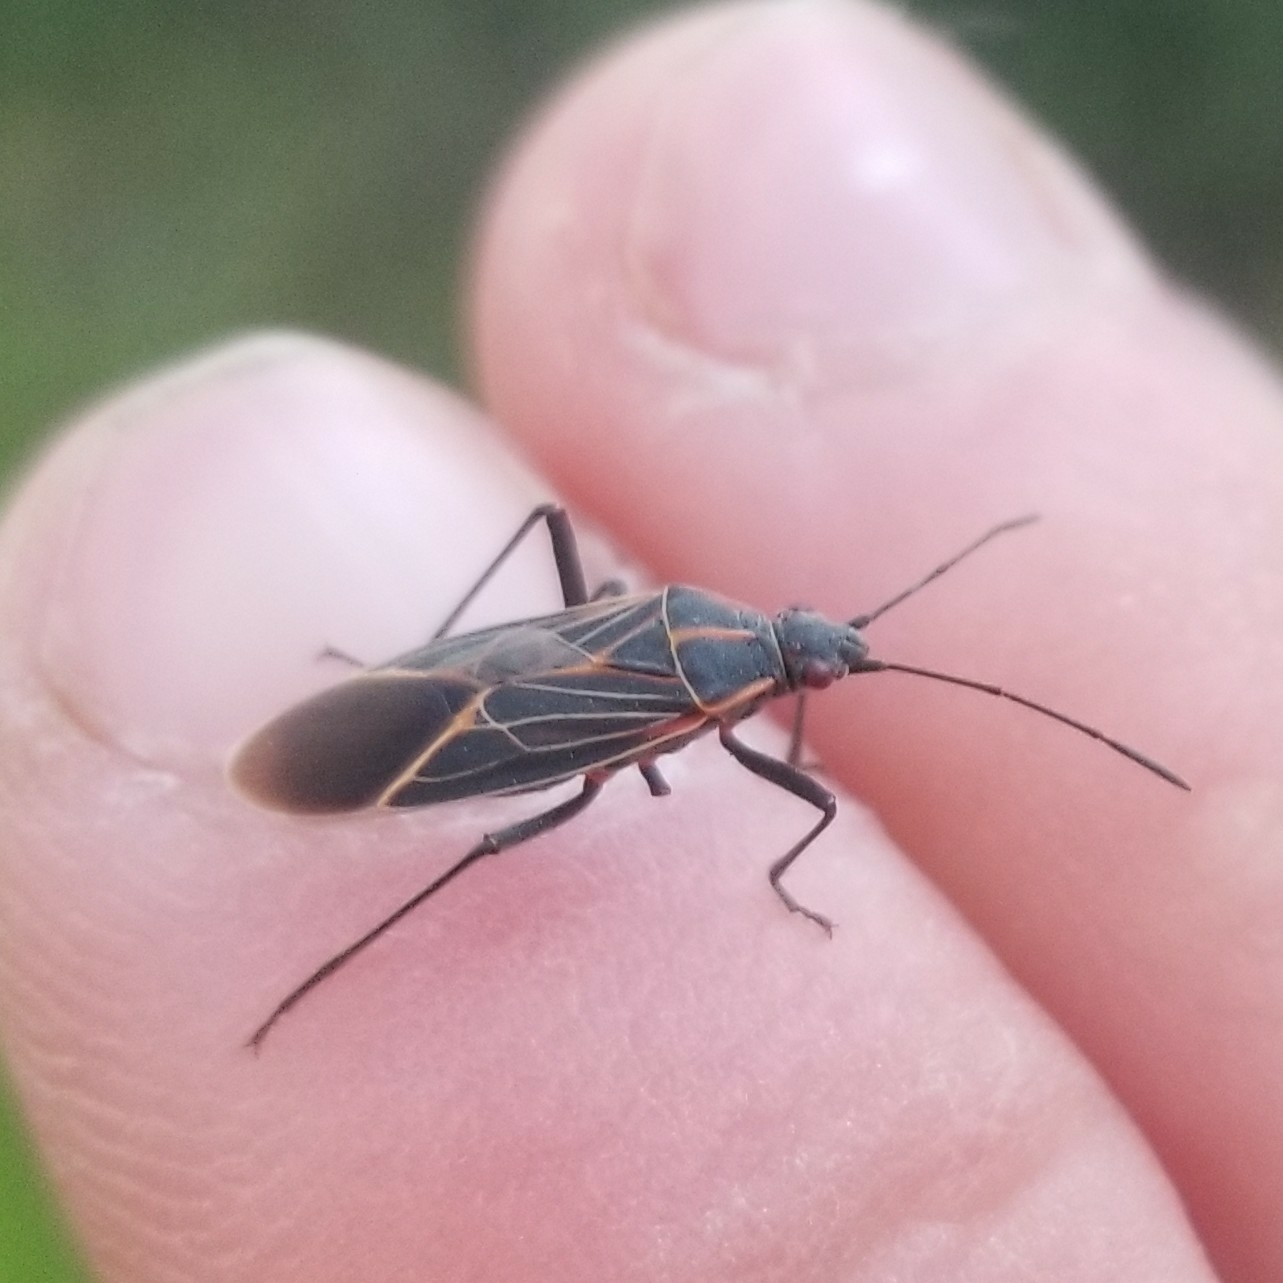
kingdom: Animalia
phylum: Arthropoda
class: Insecta
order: Hemiptera
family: Rhopalidae
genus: Boisea
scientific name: Boisea rubrolineata
